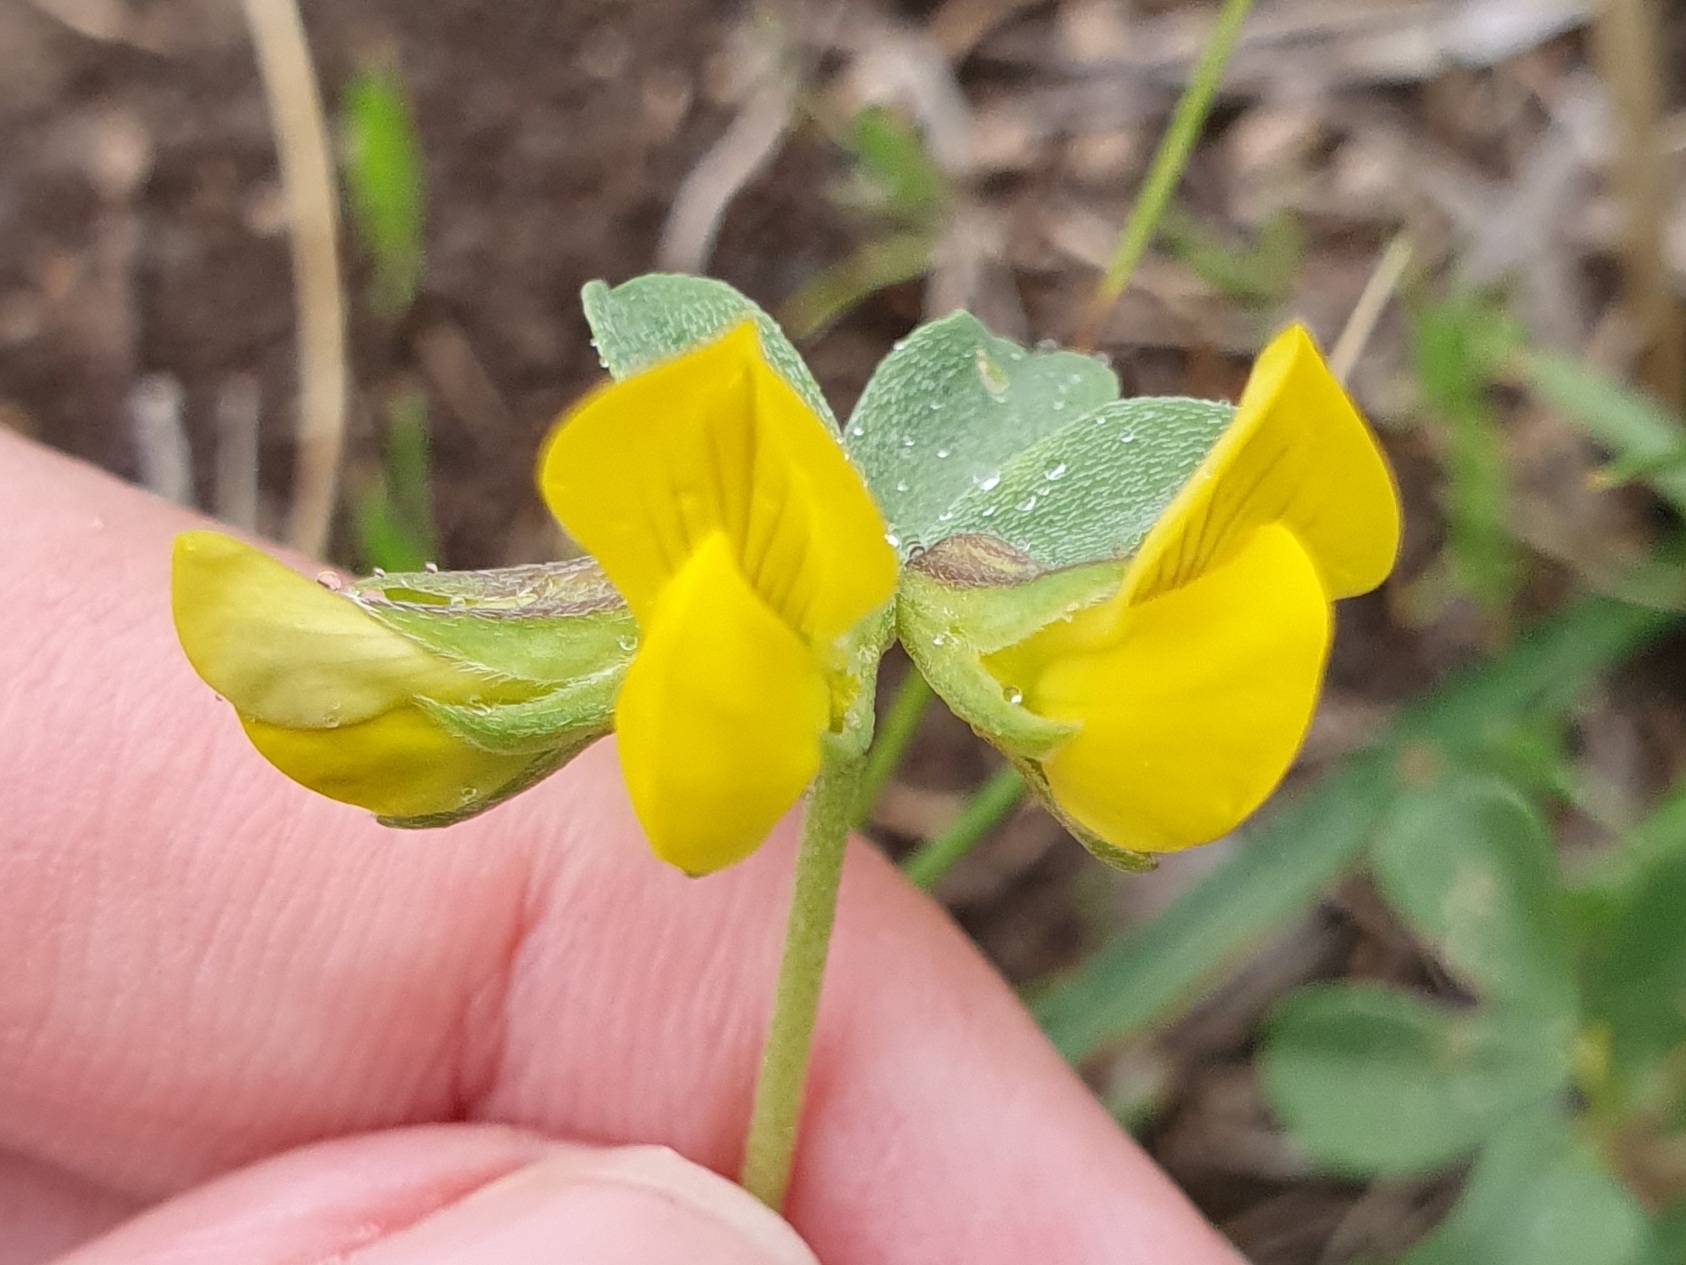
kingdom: Plantae
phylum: Tracheophyta
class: Magnoliopsida
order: Fabales
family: Fabaceae
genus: Lotus
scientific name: Lotus longisiliquosus
